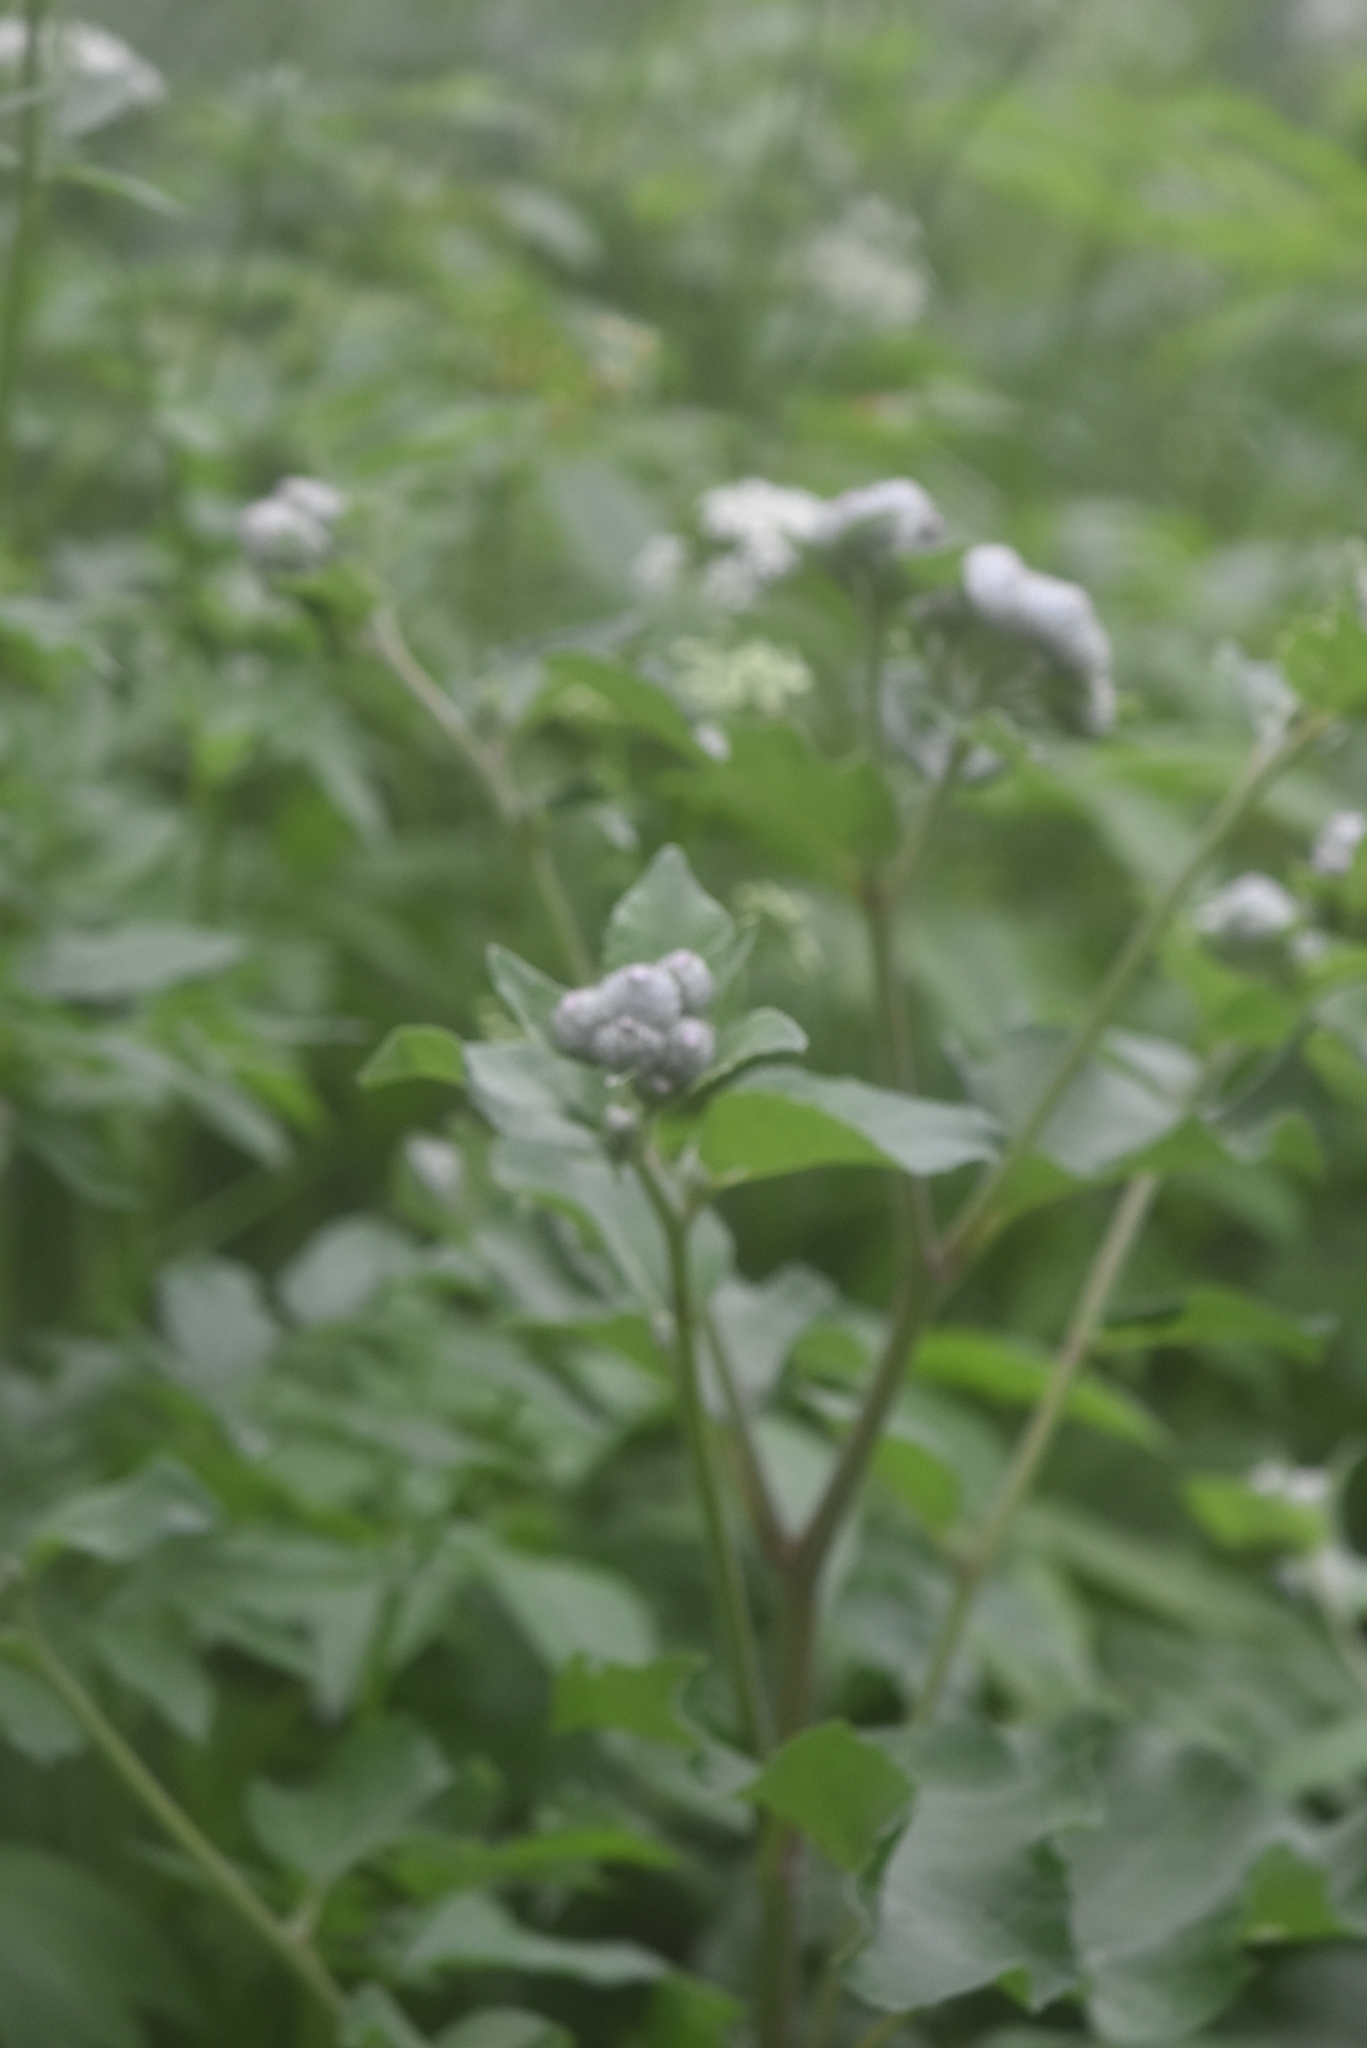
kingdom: Plantae
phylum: Tracheophyta
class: Magnoliopsida
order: Asterales
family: Asteraceae
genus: Arctium
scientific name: Arctium tomentosum
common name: Woolly burdock
